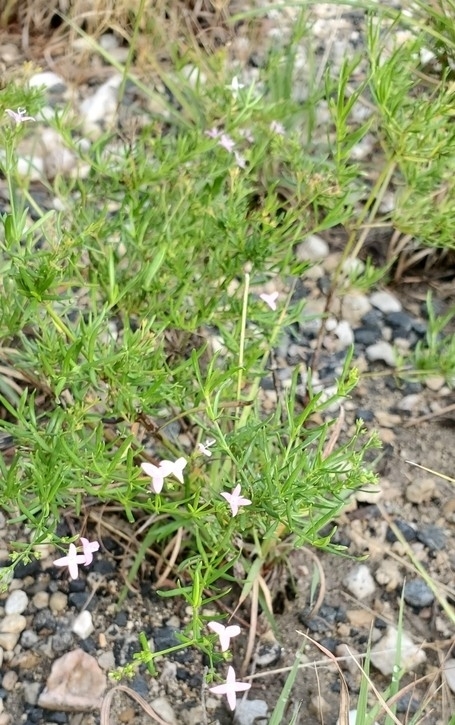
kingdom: Plantae
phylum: Tracheophyta
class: Magnoliopsida
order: Gentianales
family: Rubiaceae
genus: Stenaria
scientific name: Stenaria nigricans
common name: Diamondflowers
